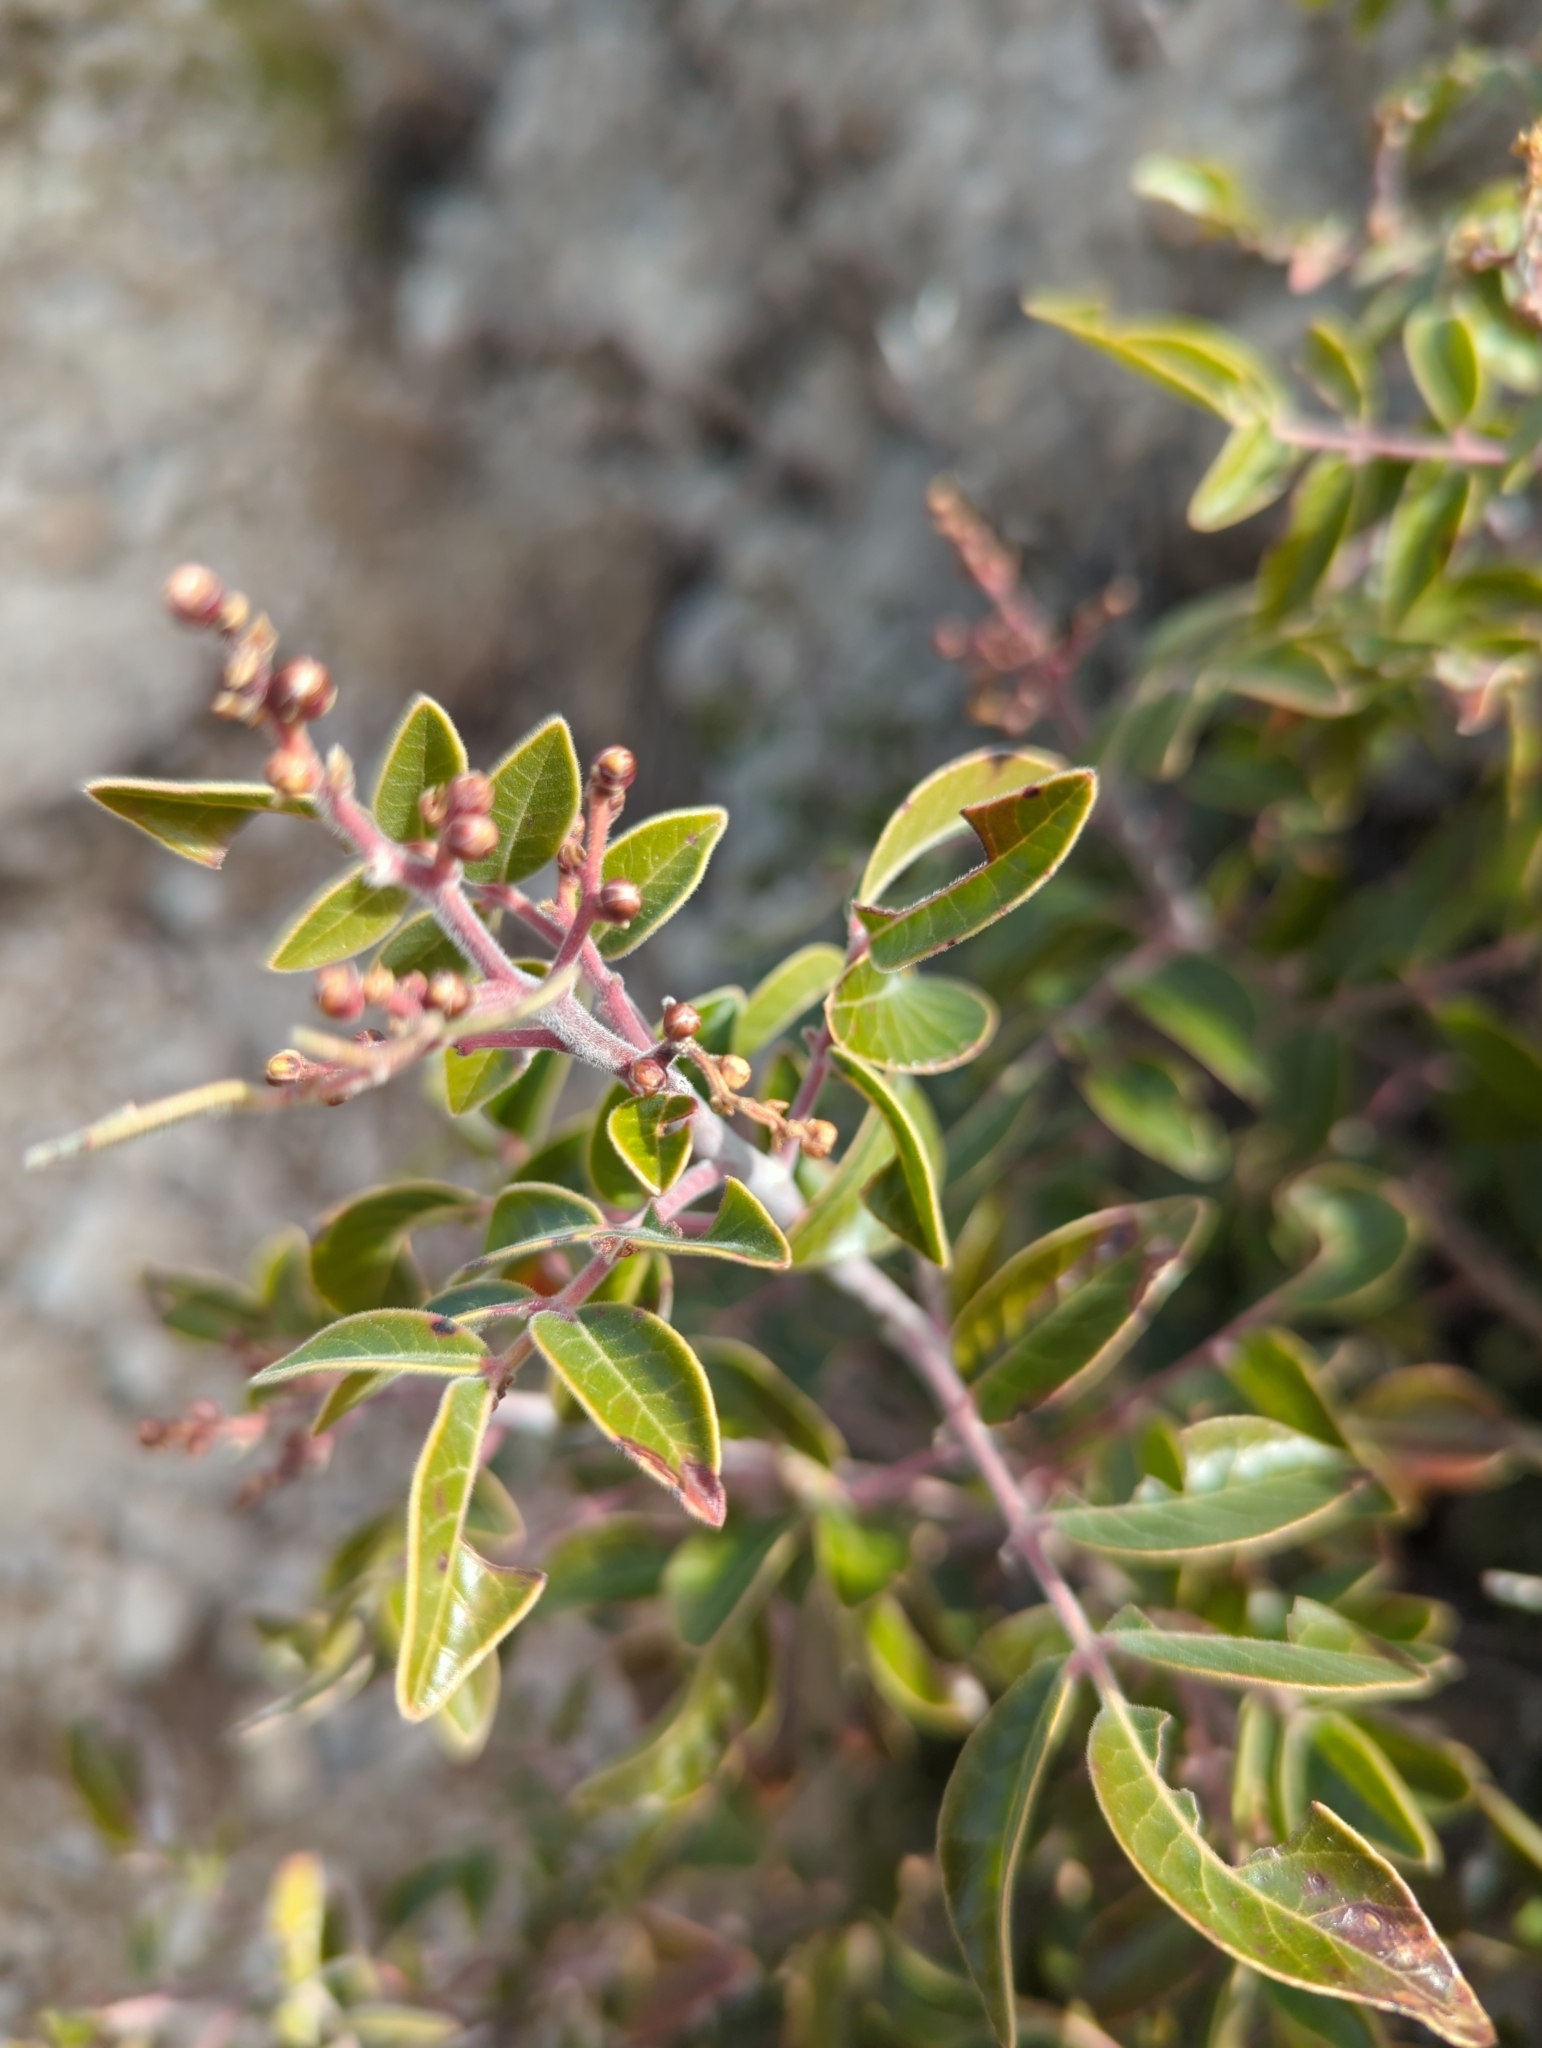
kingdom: Plantae
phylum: Tracheophyta
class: Magnoliopsida
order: Sapindales
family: Anacardiaceae
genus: Rhus
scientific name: Rhus virens
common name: Evergreen sumac
